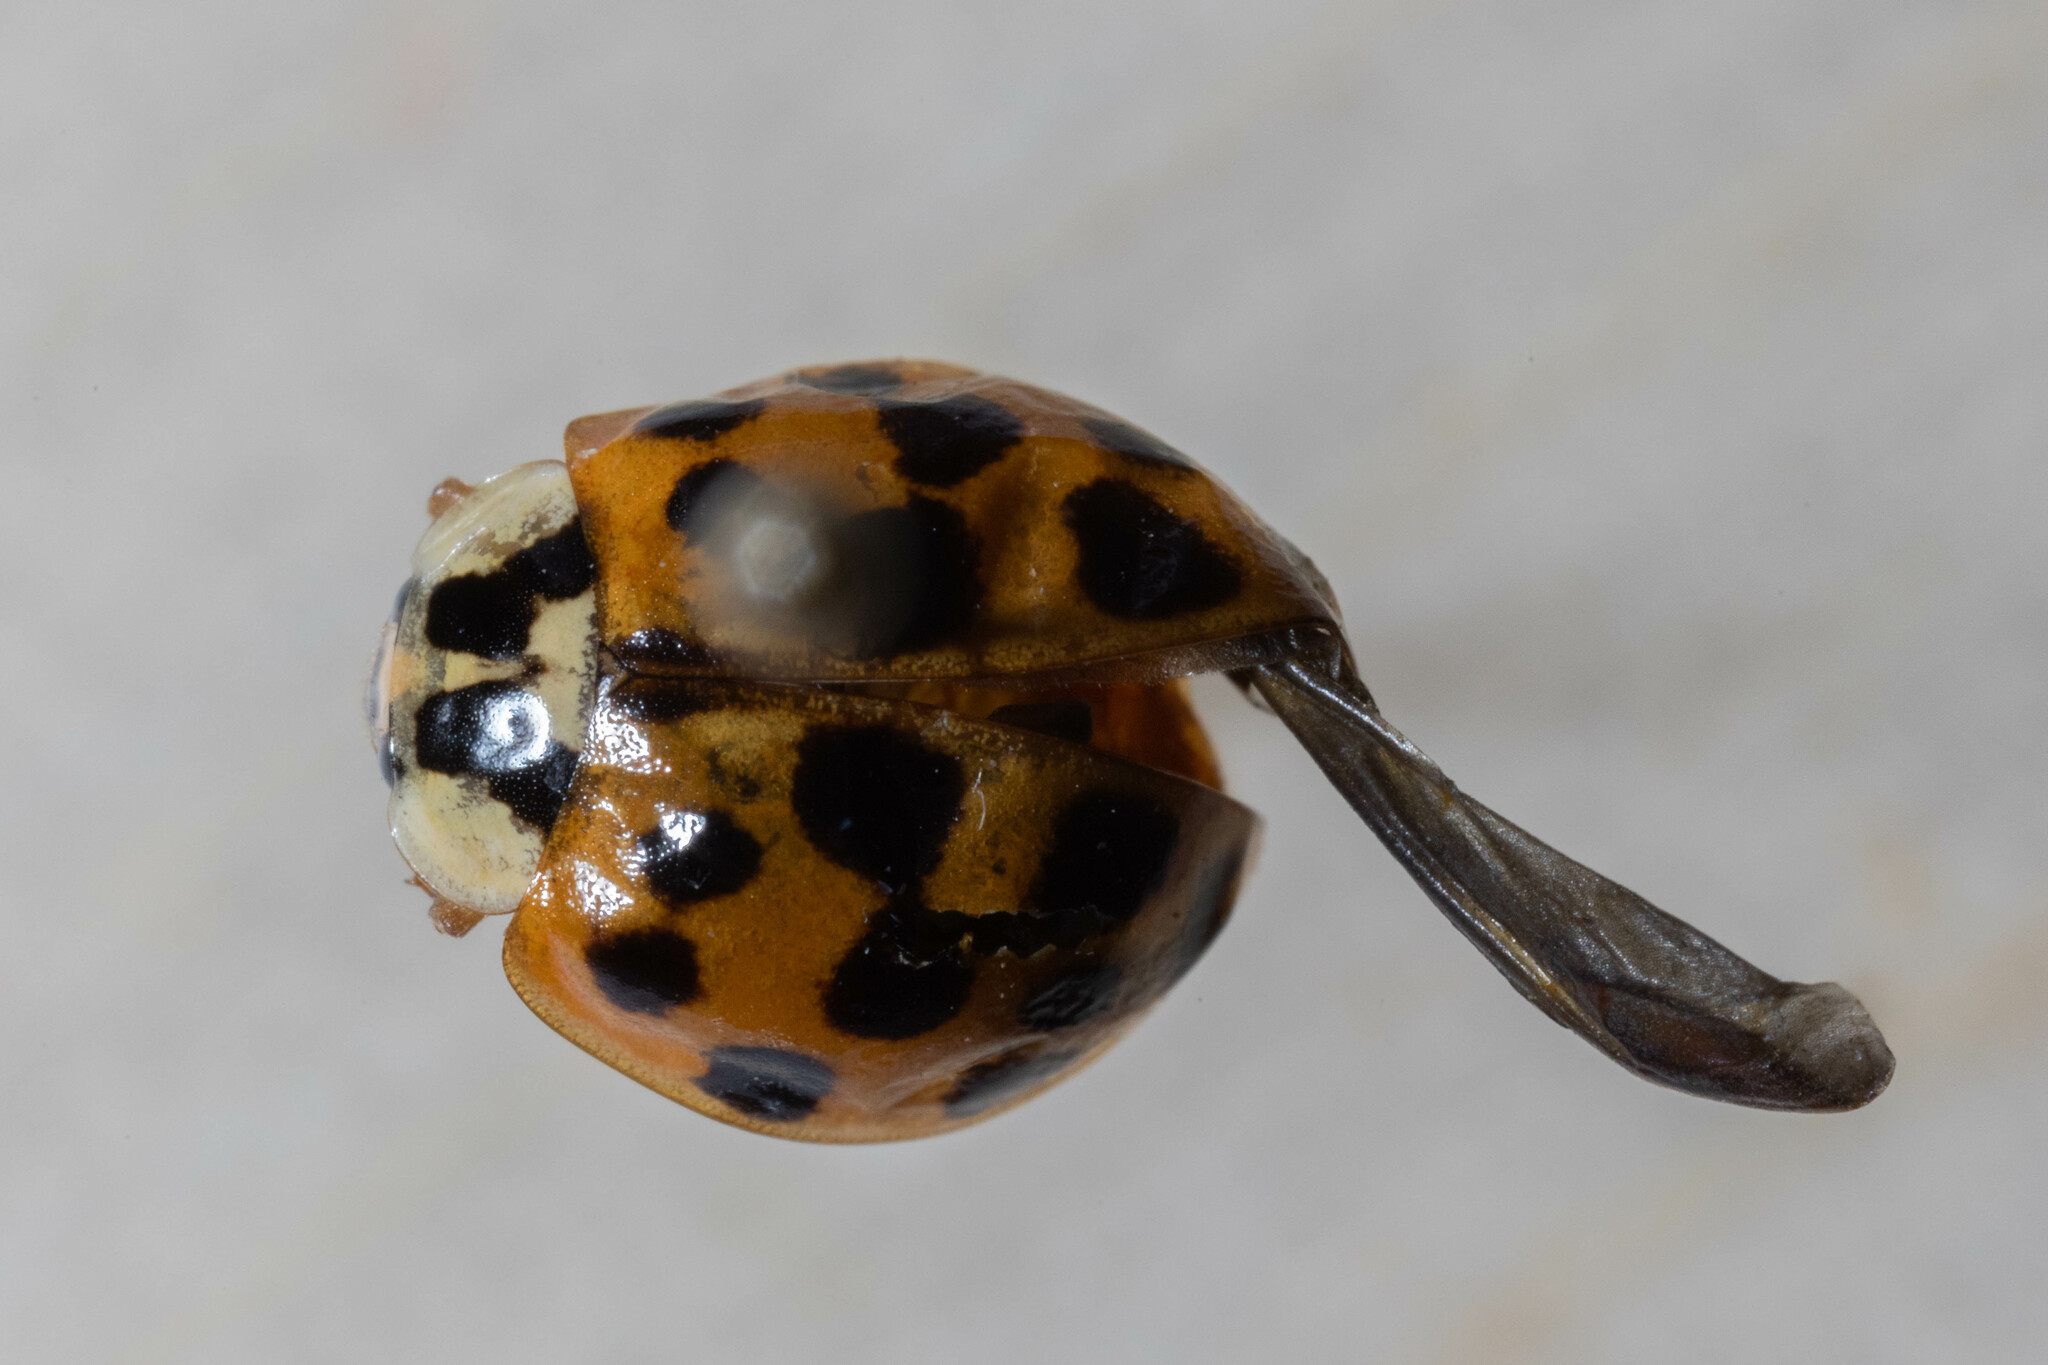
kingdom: Animalia
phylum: Arthropoda
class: Insecta
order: Coleoptera
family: Coccinellidae
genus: Harmonia
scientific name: Harmonia axyridis
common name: Harlequin ladybird
